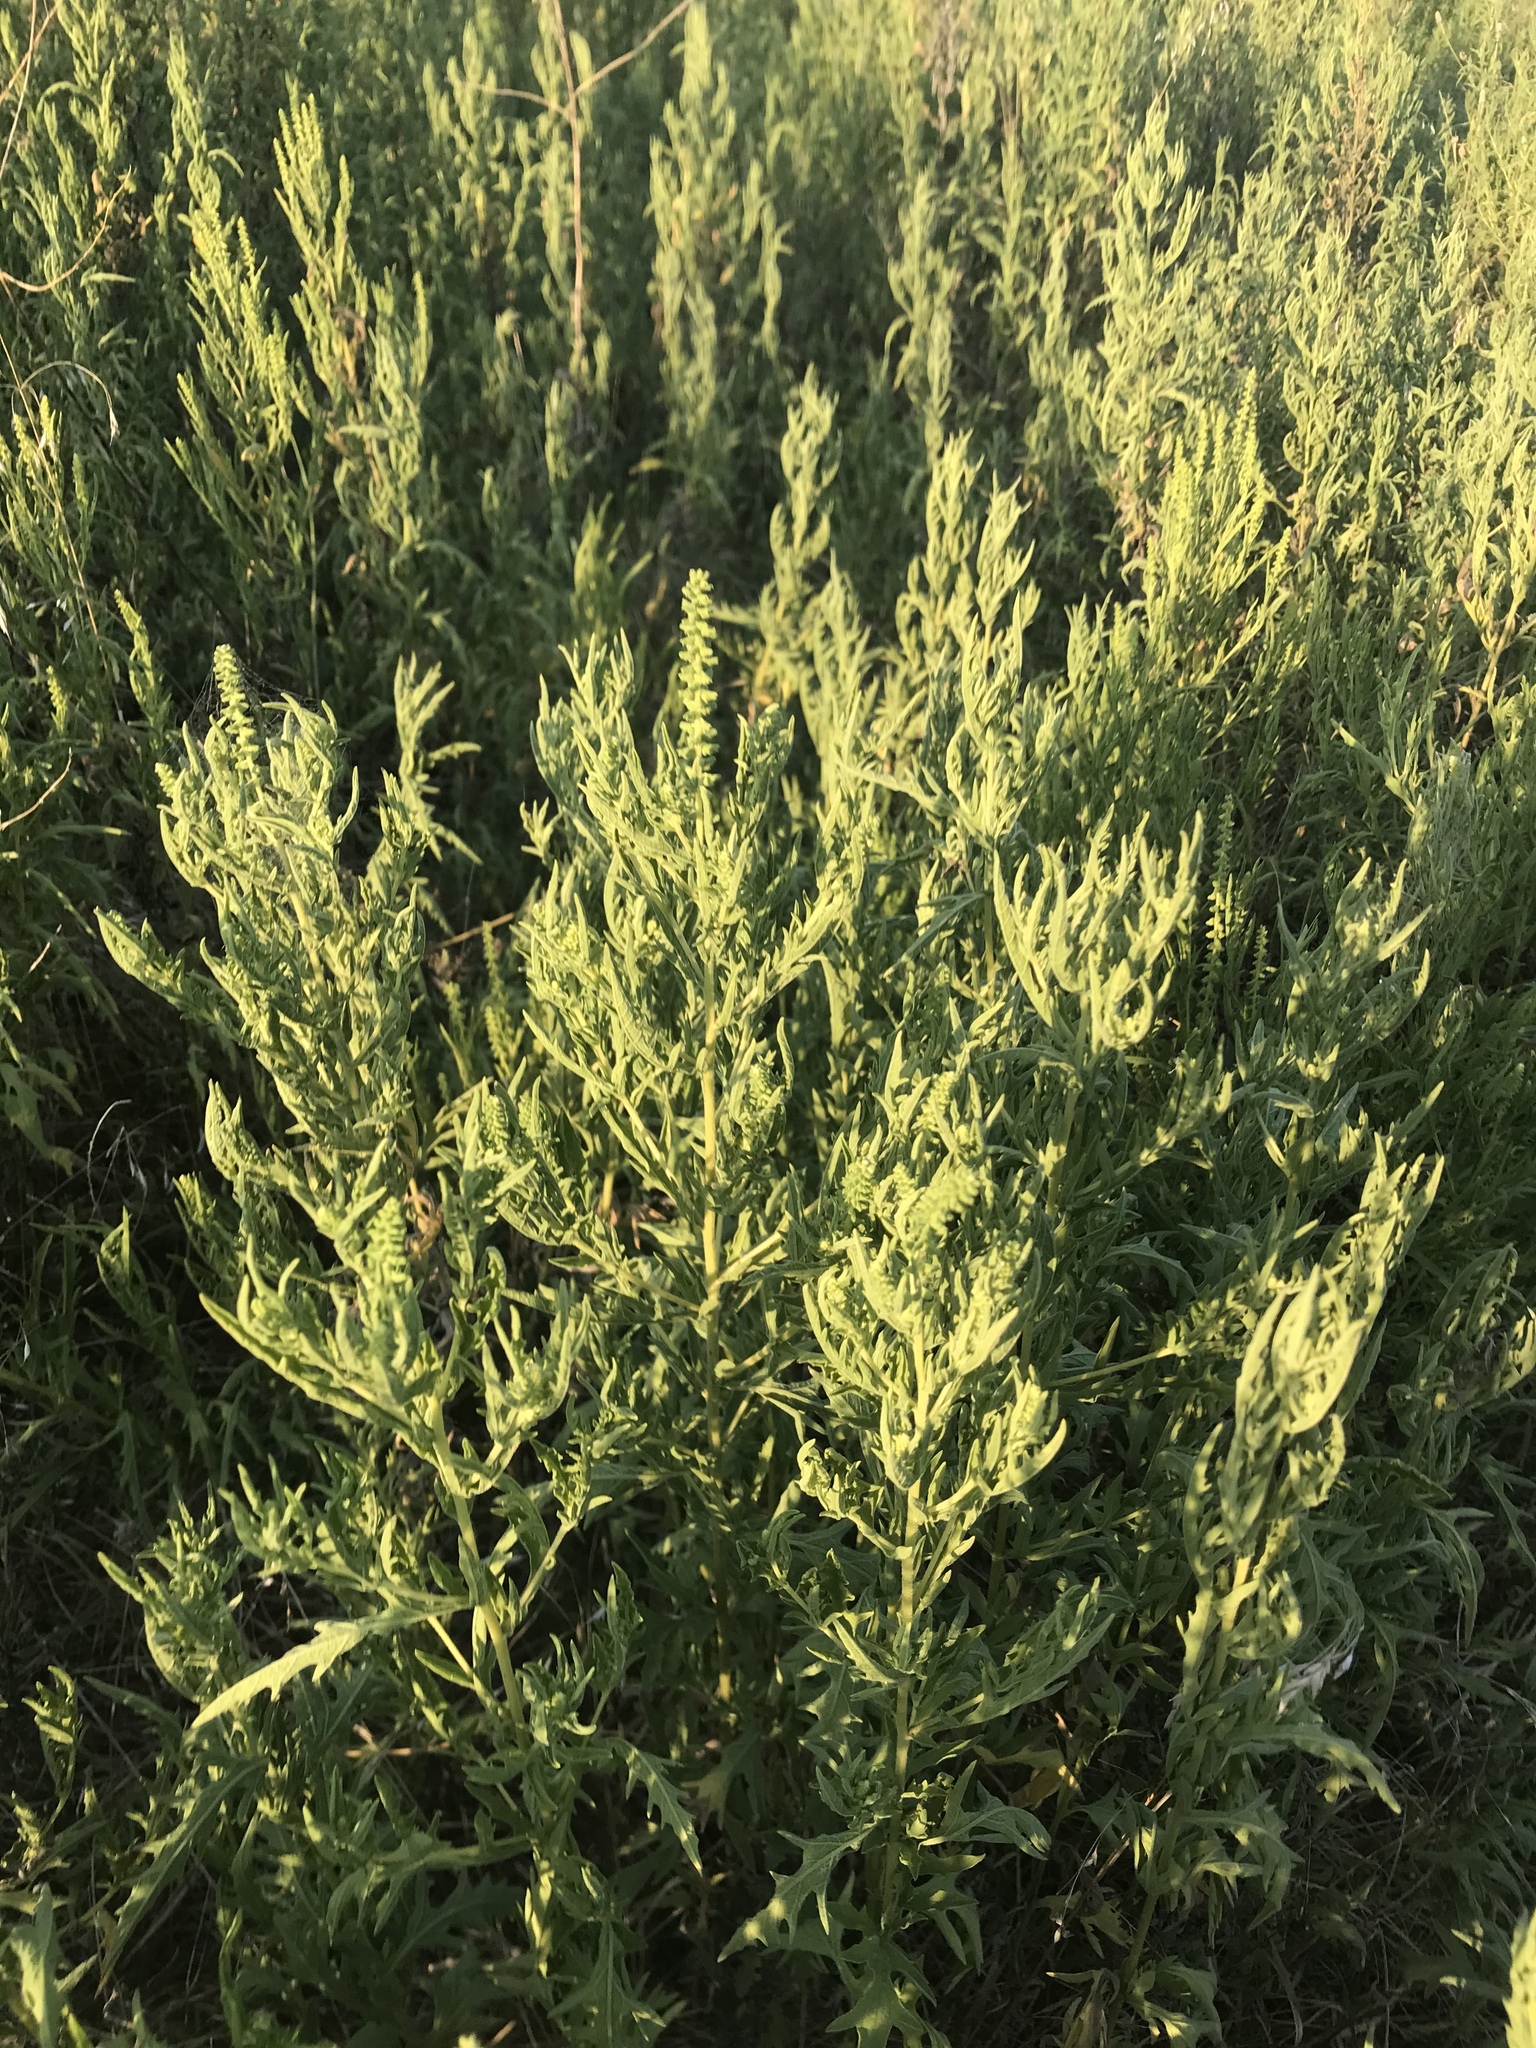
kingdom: Plantae
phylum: Tracheophyta
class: Magnoliopsida
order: Asterales
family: Asteraceae
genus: Ambrosia
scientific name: Ambrosia psilostachya
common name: Perennial ragweed
